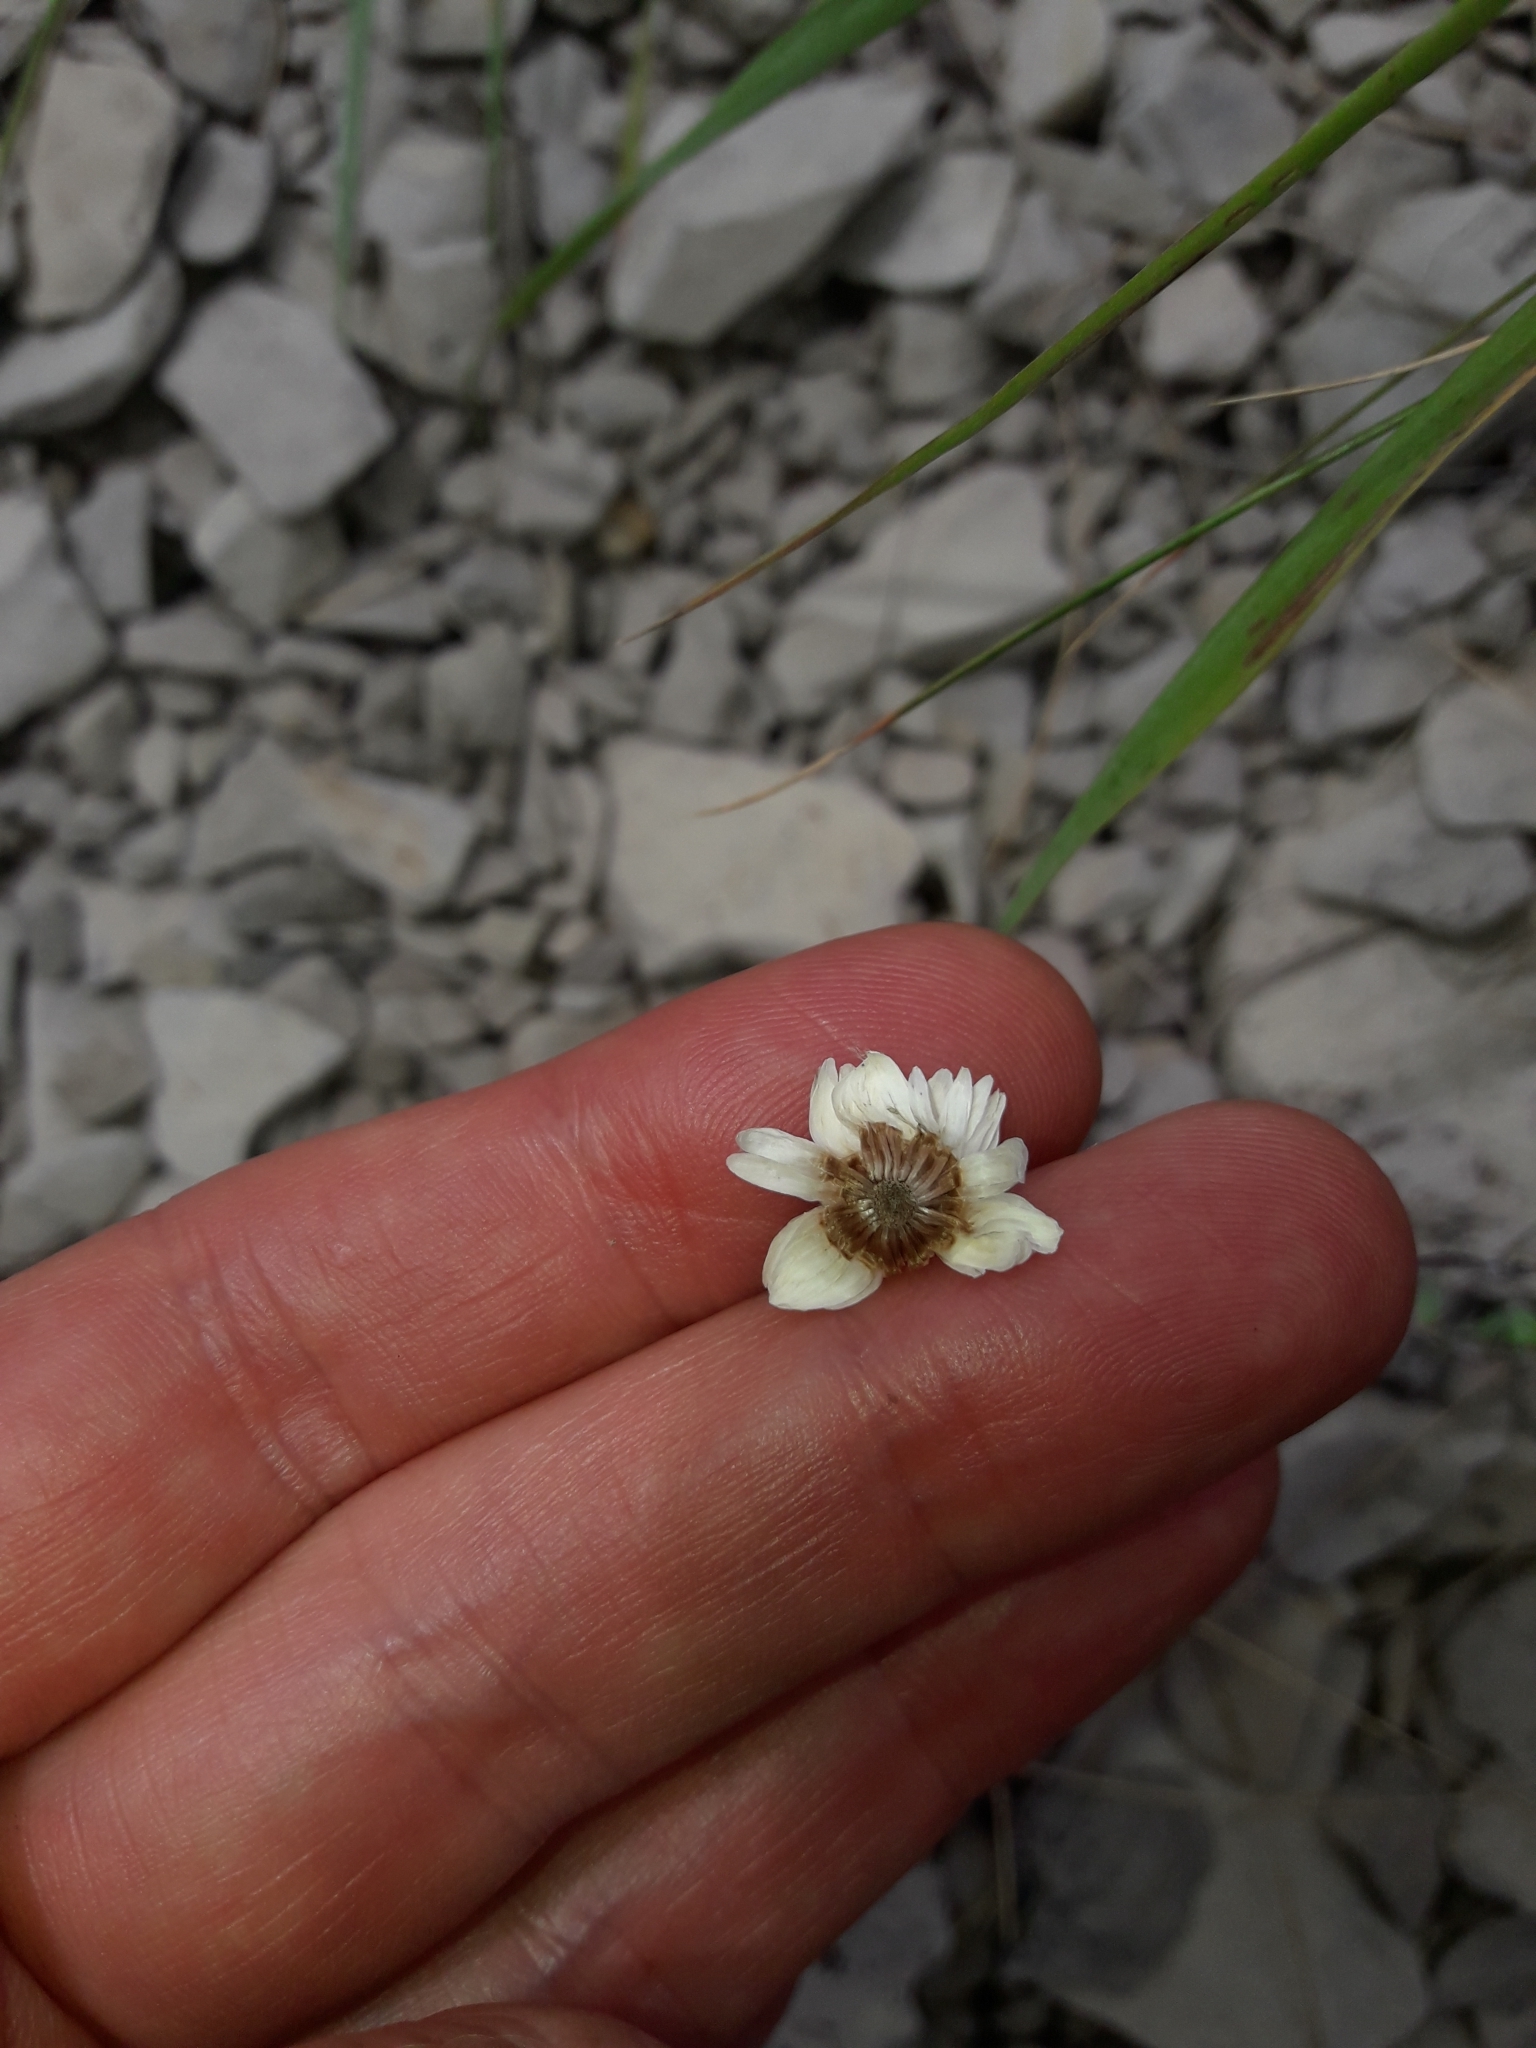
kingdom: Plantae
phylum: Tracheophyta
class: Magnoliopsida
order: Asterales
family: Asteraceae
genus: Anaphalioides
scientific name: Anaphalioides bellidioides
